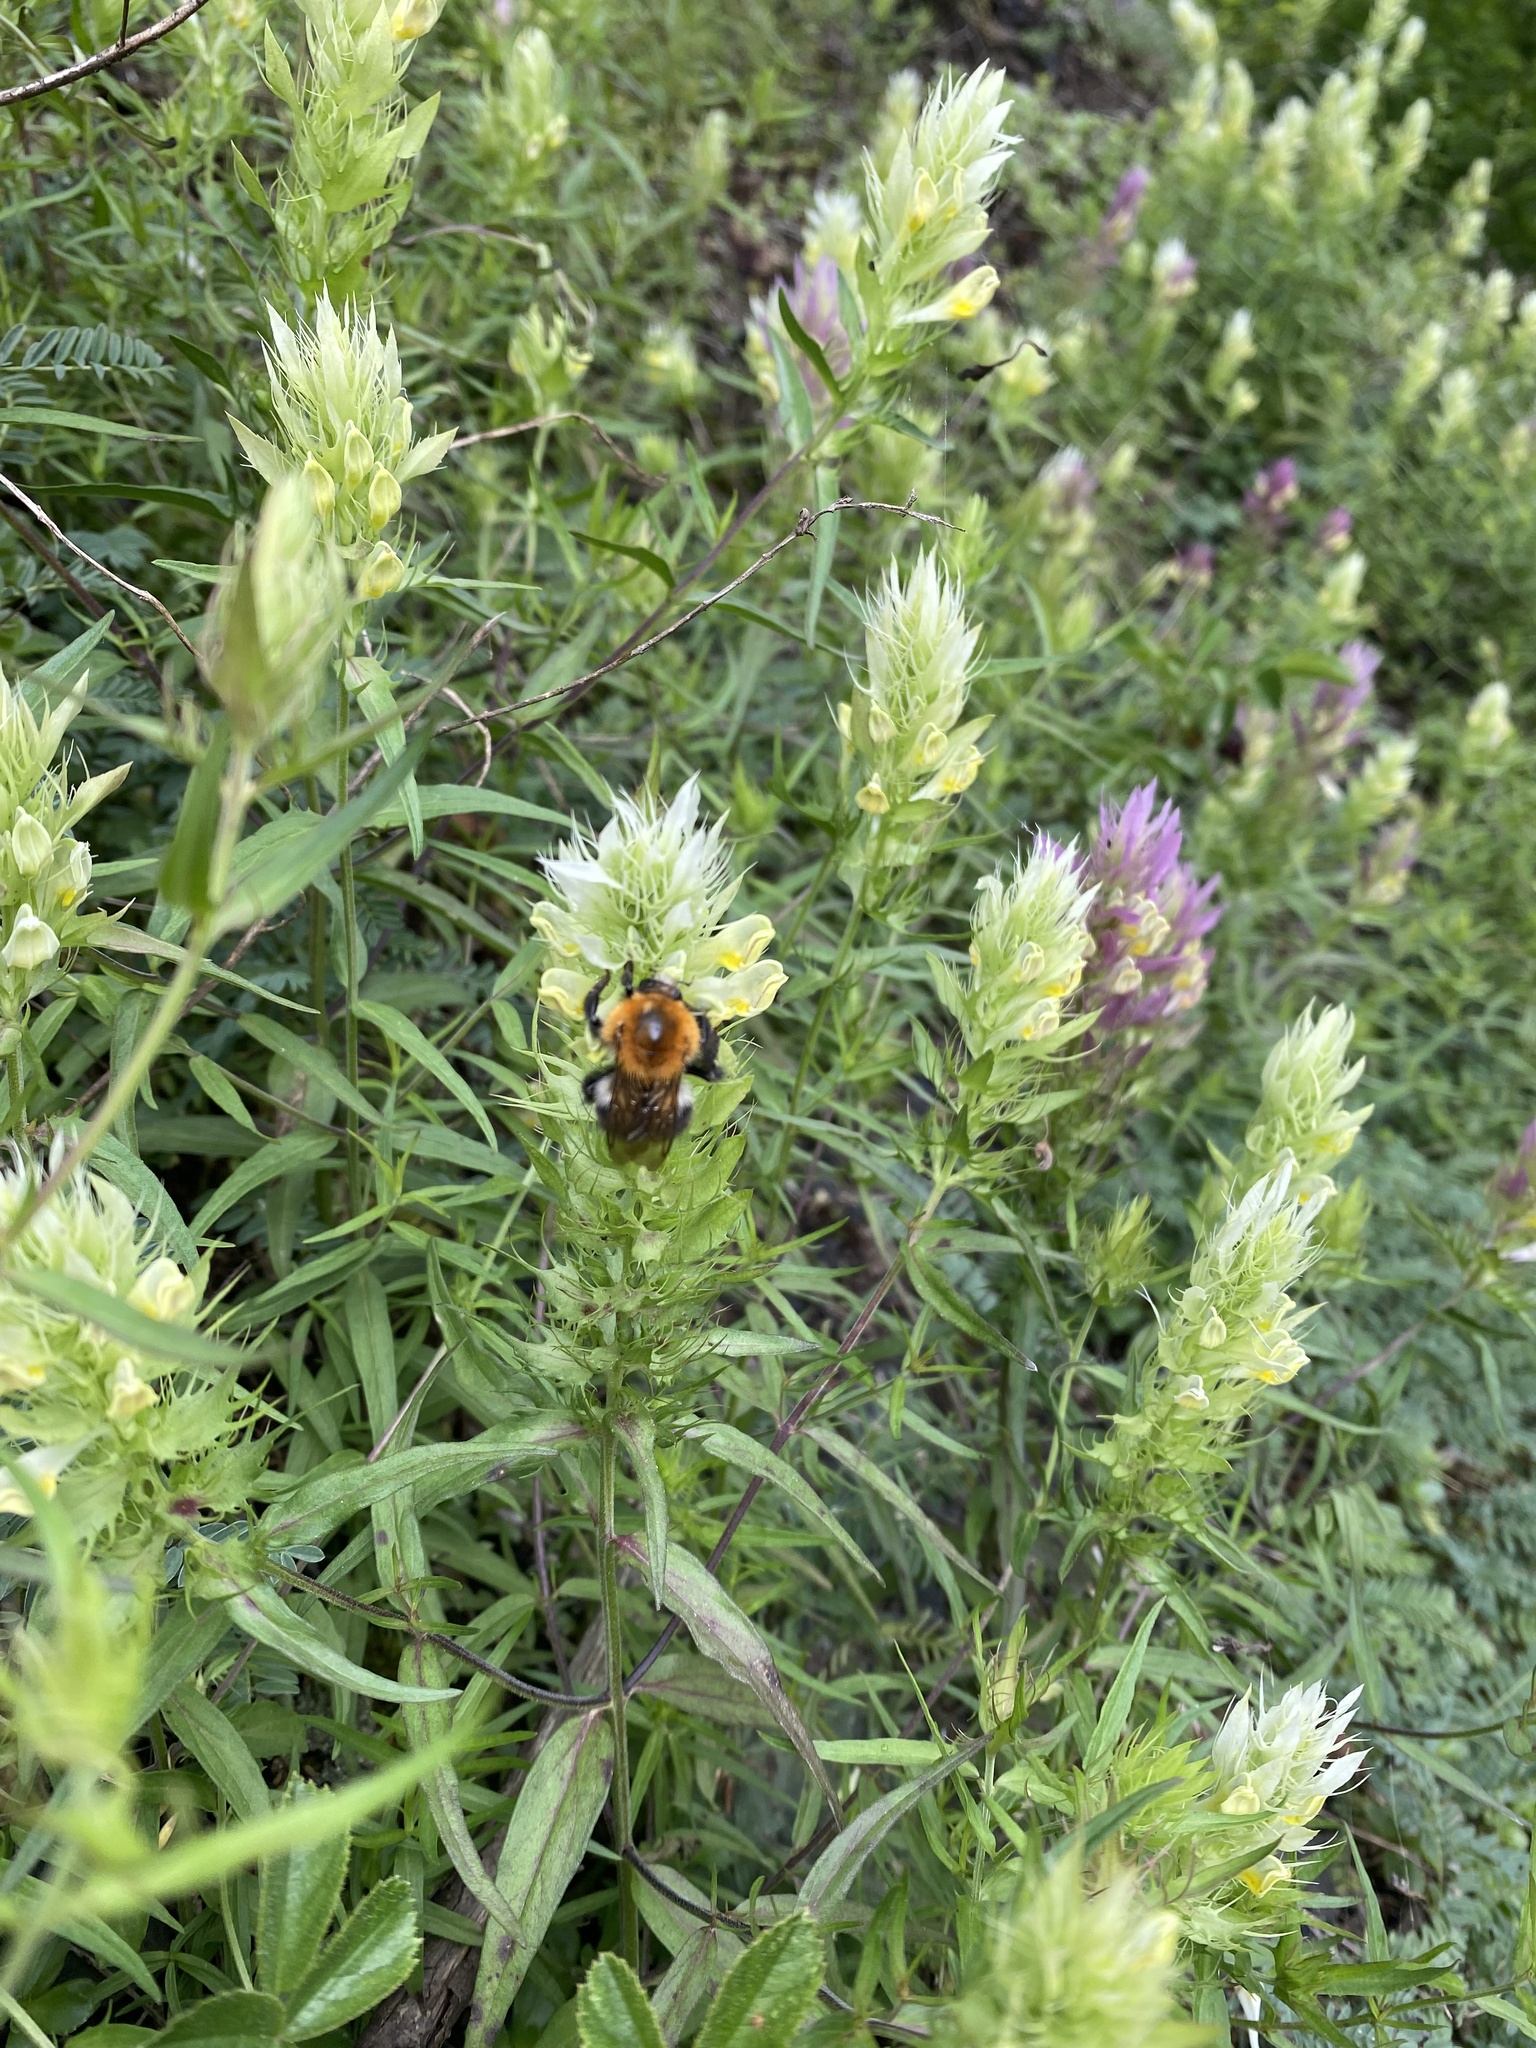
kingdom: Animalia
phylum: Arthropoda
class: Insecta
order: Hymenoptera
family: Apidae
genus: Bombus
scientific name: Bombus pascuorum
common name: Common carder bee
